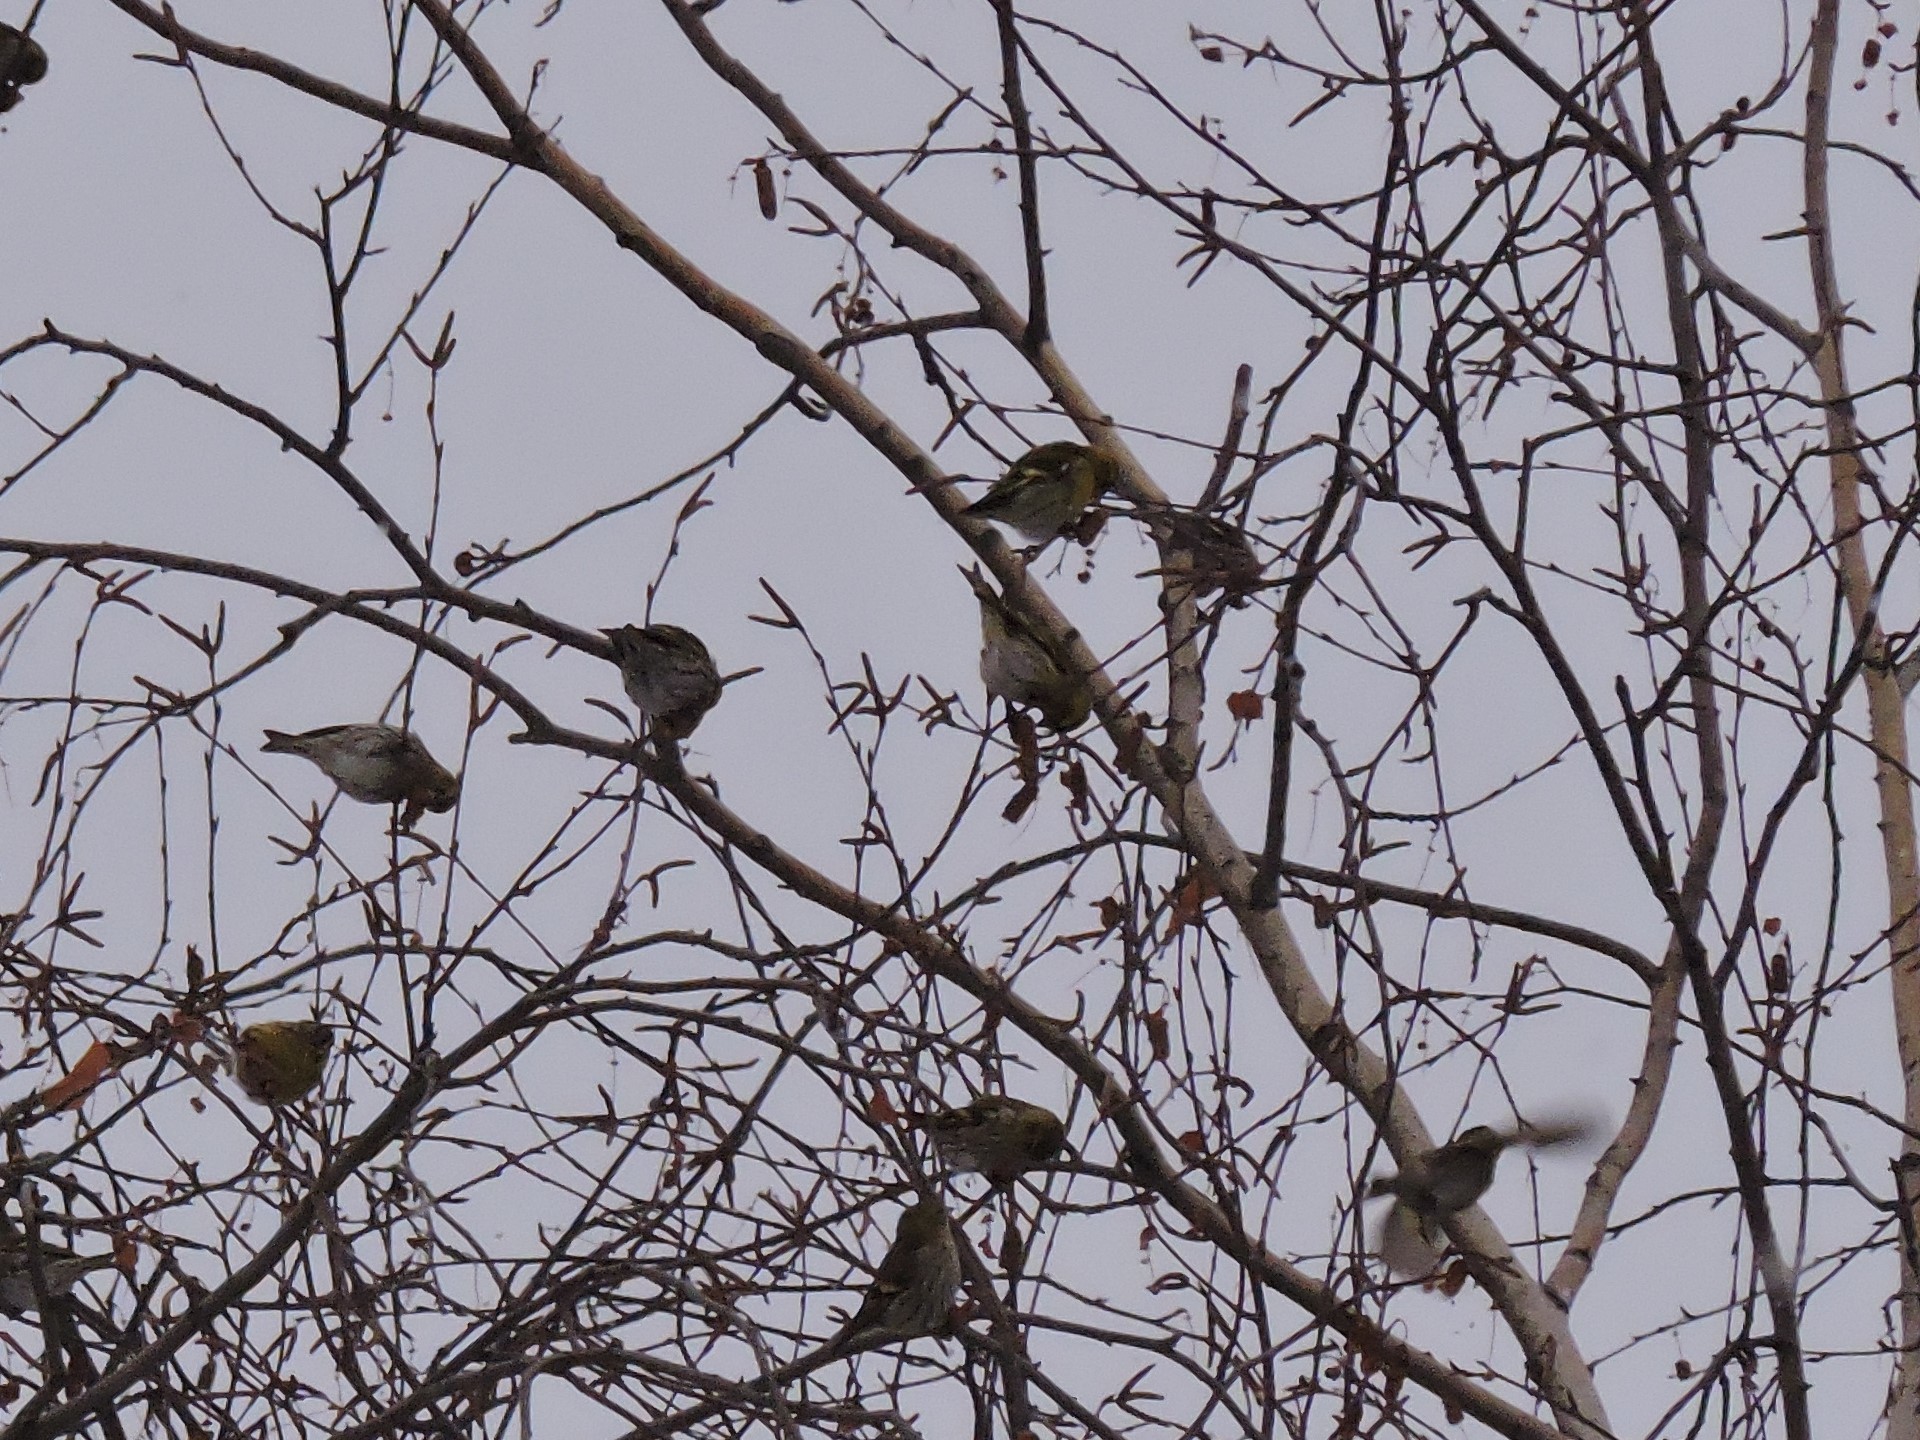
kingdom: Animalia
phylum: Chordata
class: Aves
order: Passeriformes
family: Fringillidae
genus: Spinus
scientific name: Spinus spinus
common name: Eurasian siskin
